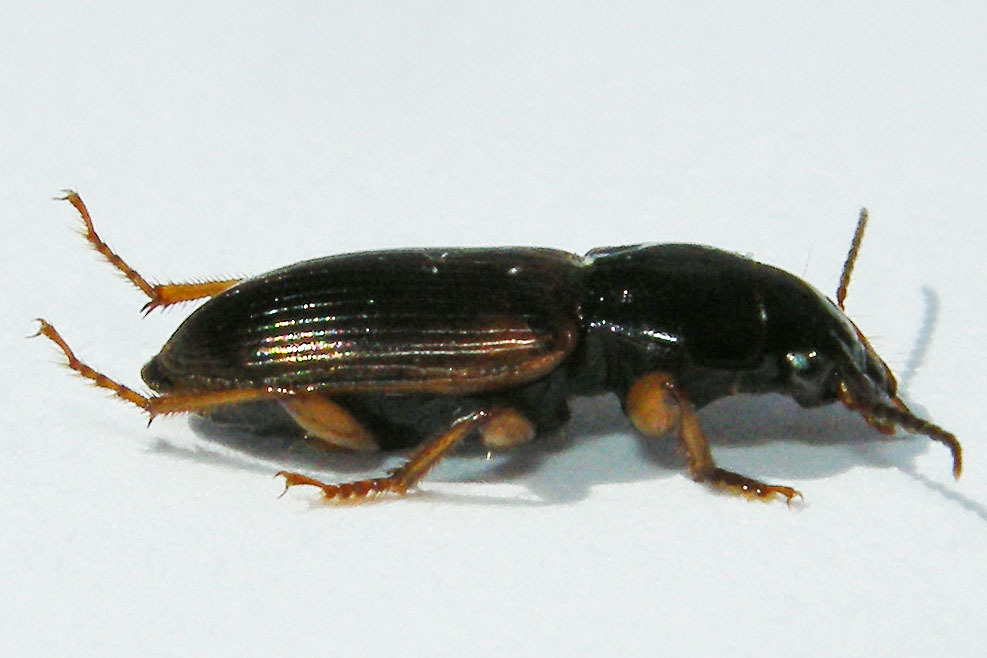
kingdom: Animalia
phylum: Arthropoda
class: Insecta
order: Coleoptera
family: Carabidae
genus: Anisodactylus
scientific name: Anisodactylus sanctaecrucis
